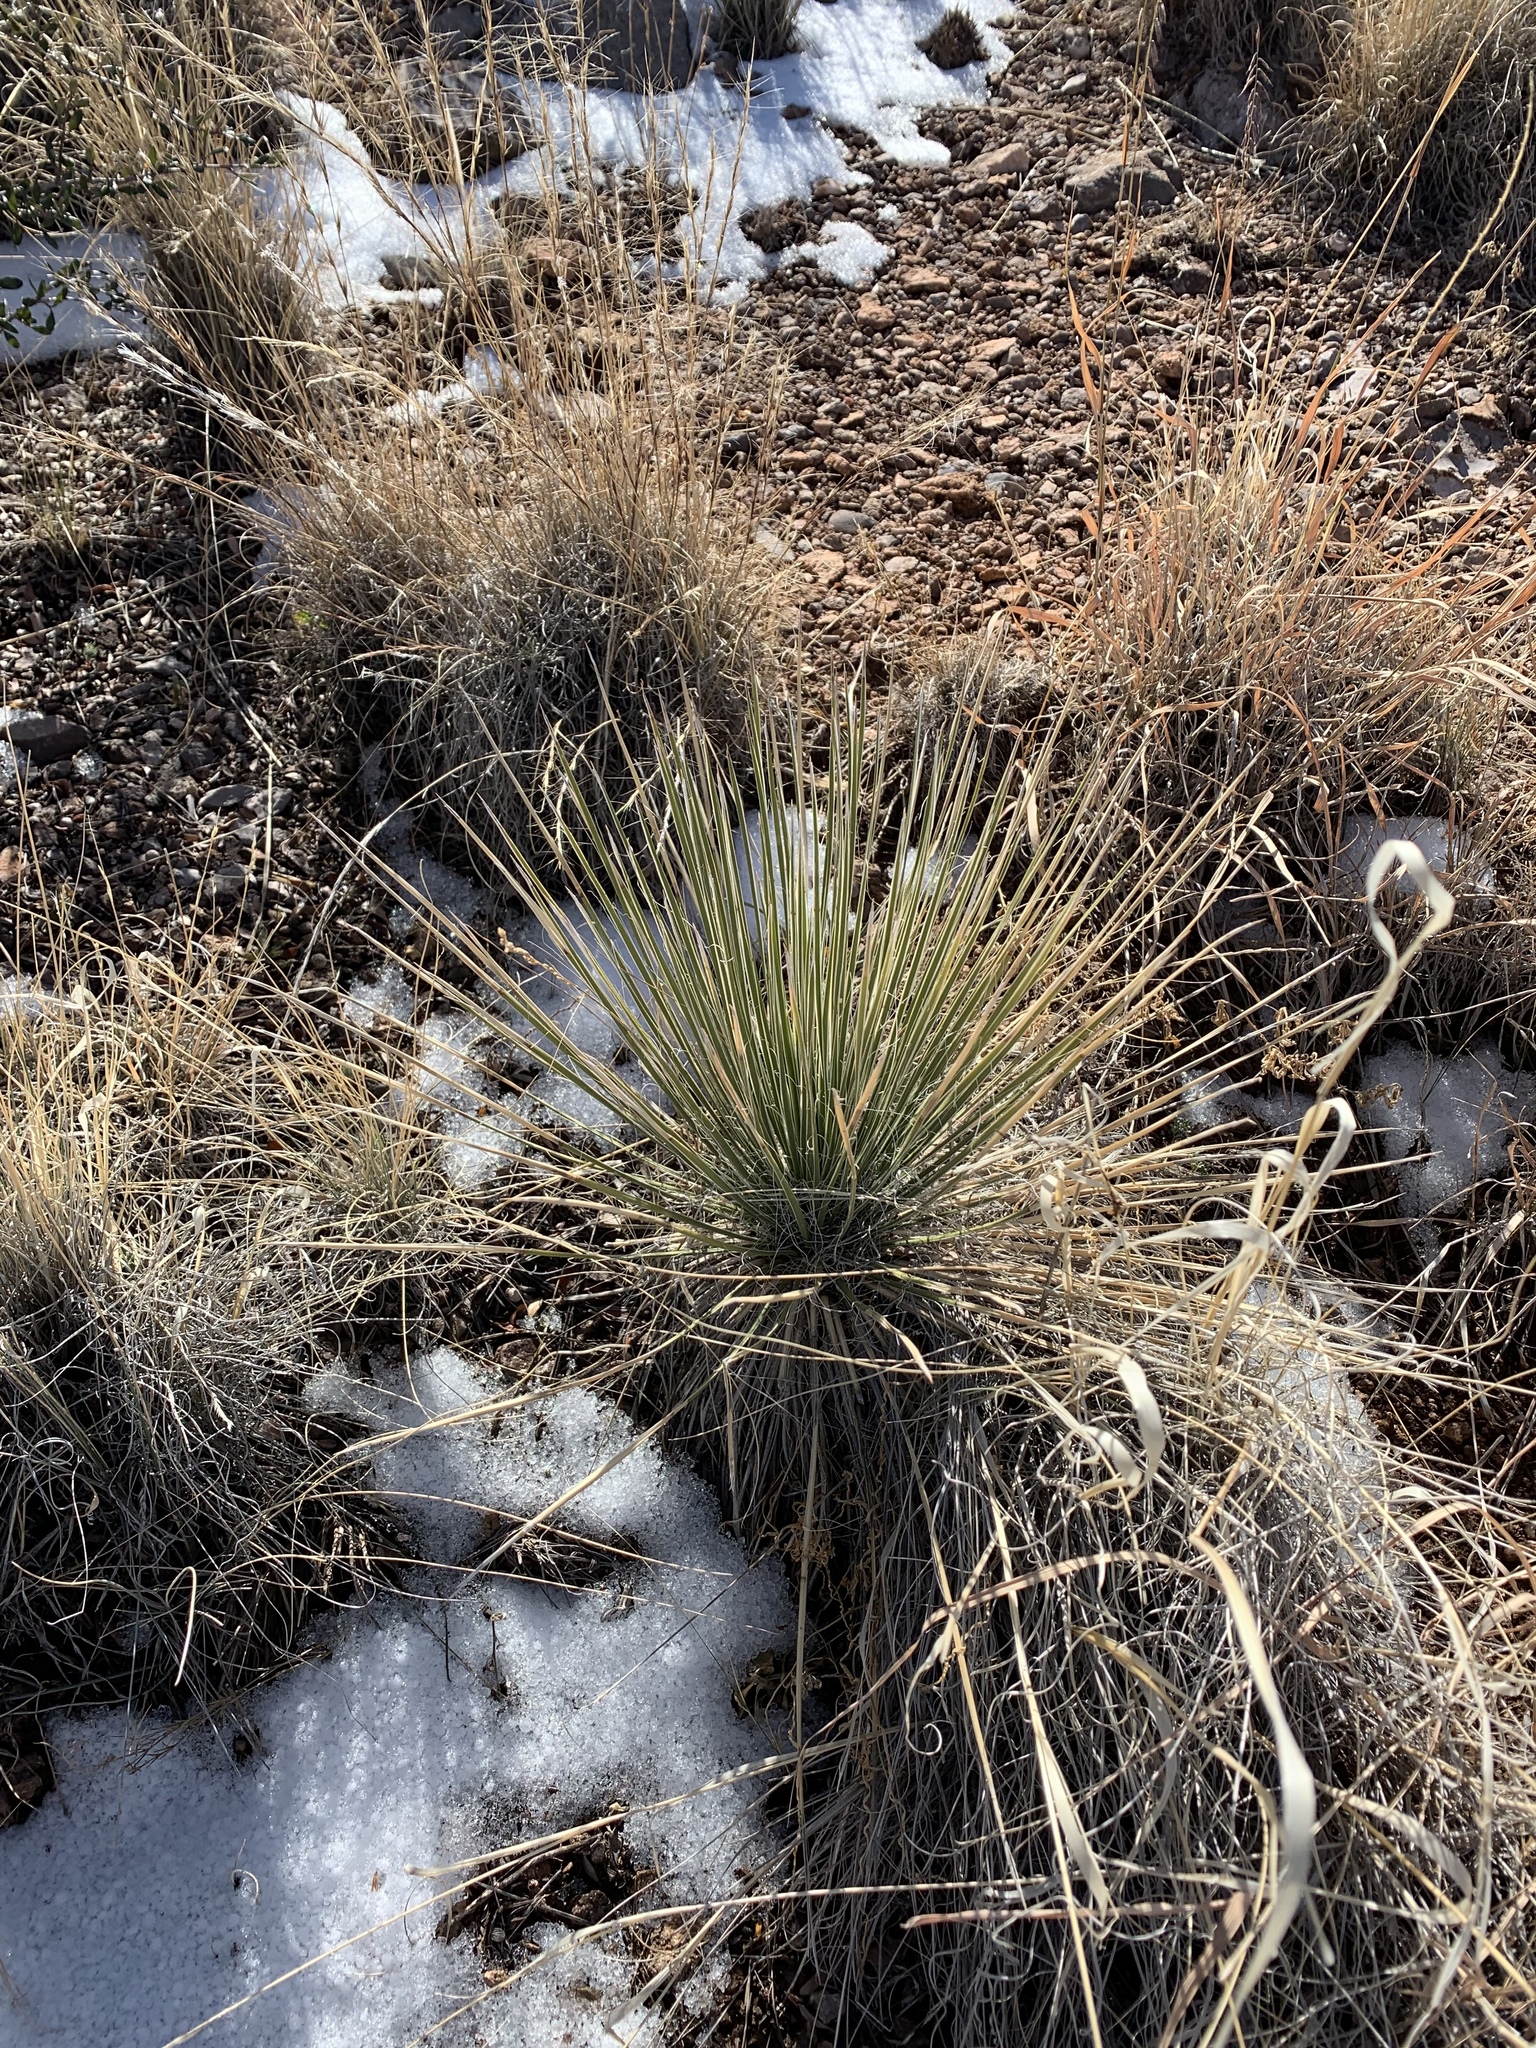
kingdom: Plantae
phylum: Tracheophyta
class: Liliopsida
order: Asparagales
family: Asparagaceae
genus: Yucca
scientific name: Yucca elata
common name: Palmella
